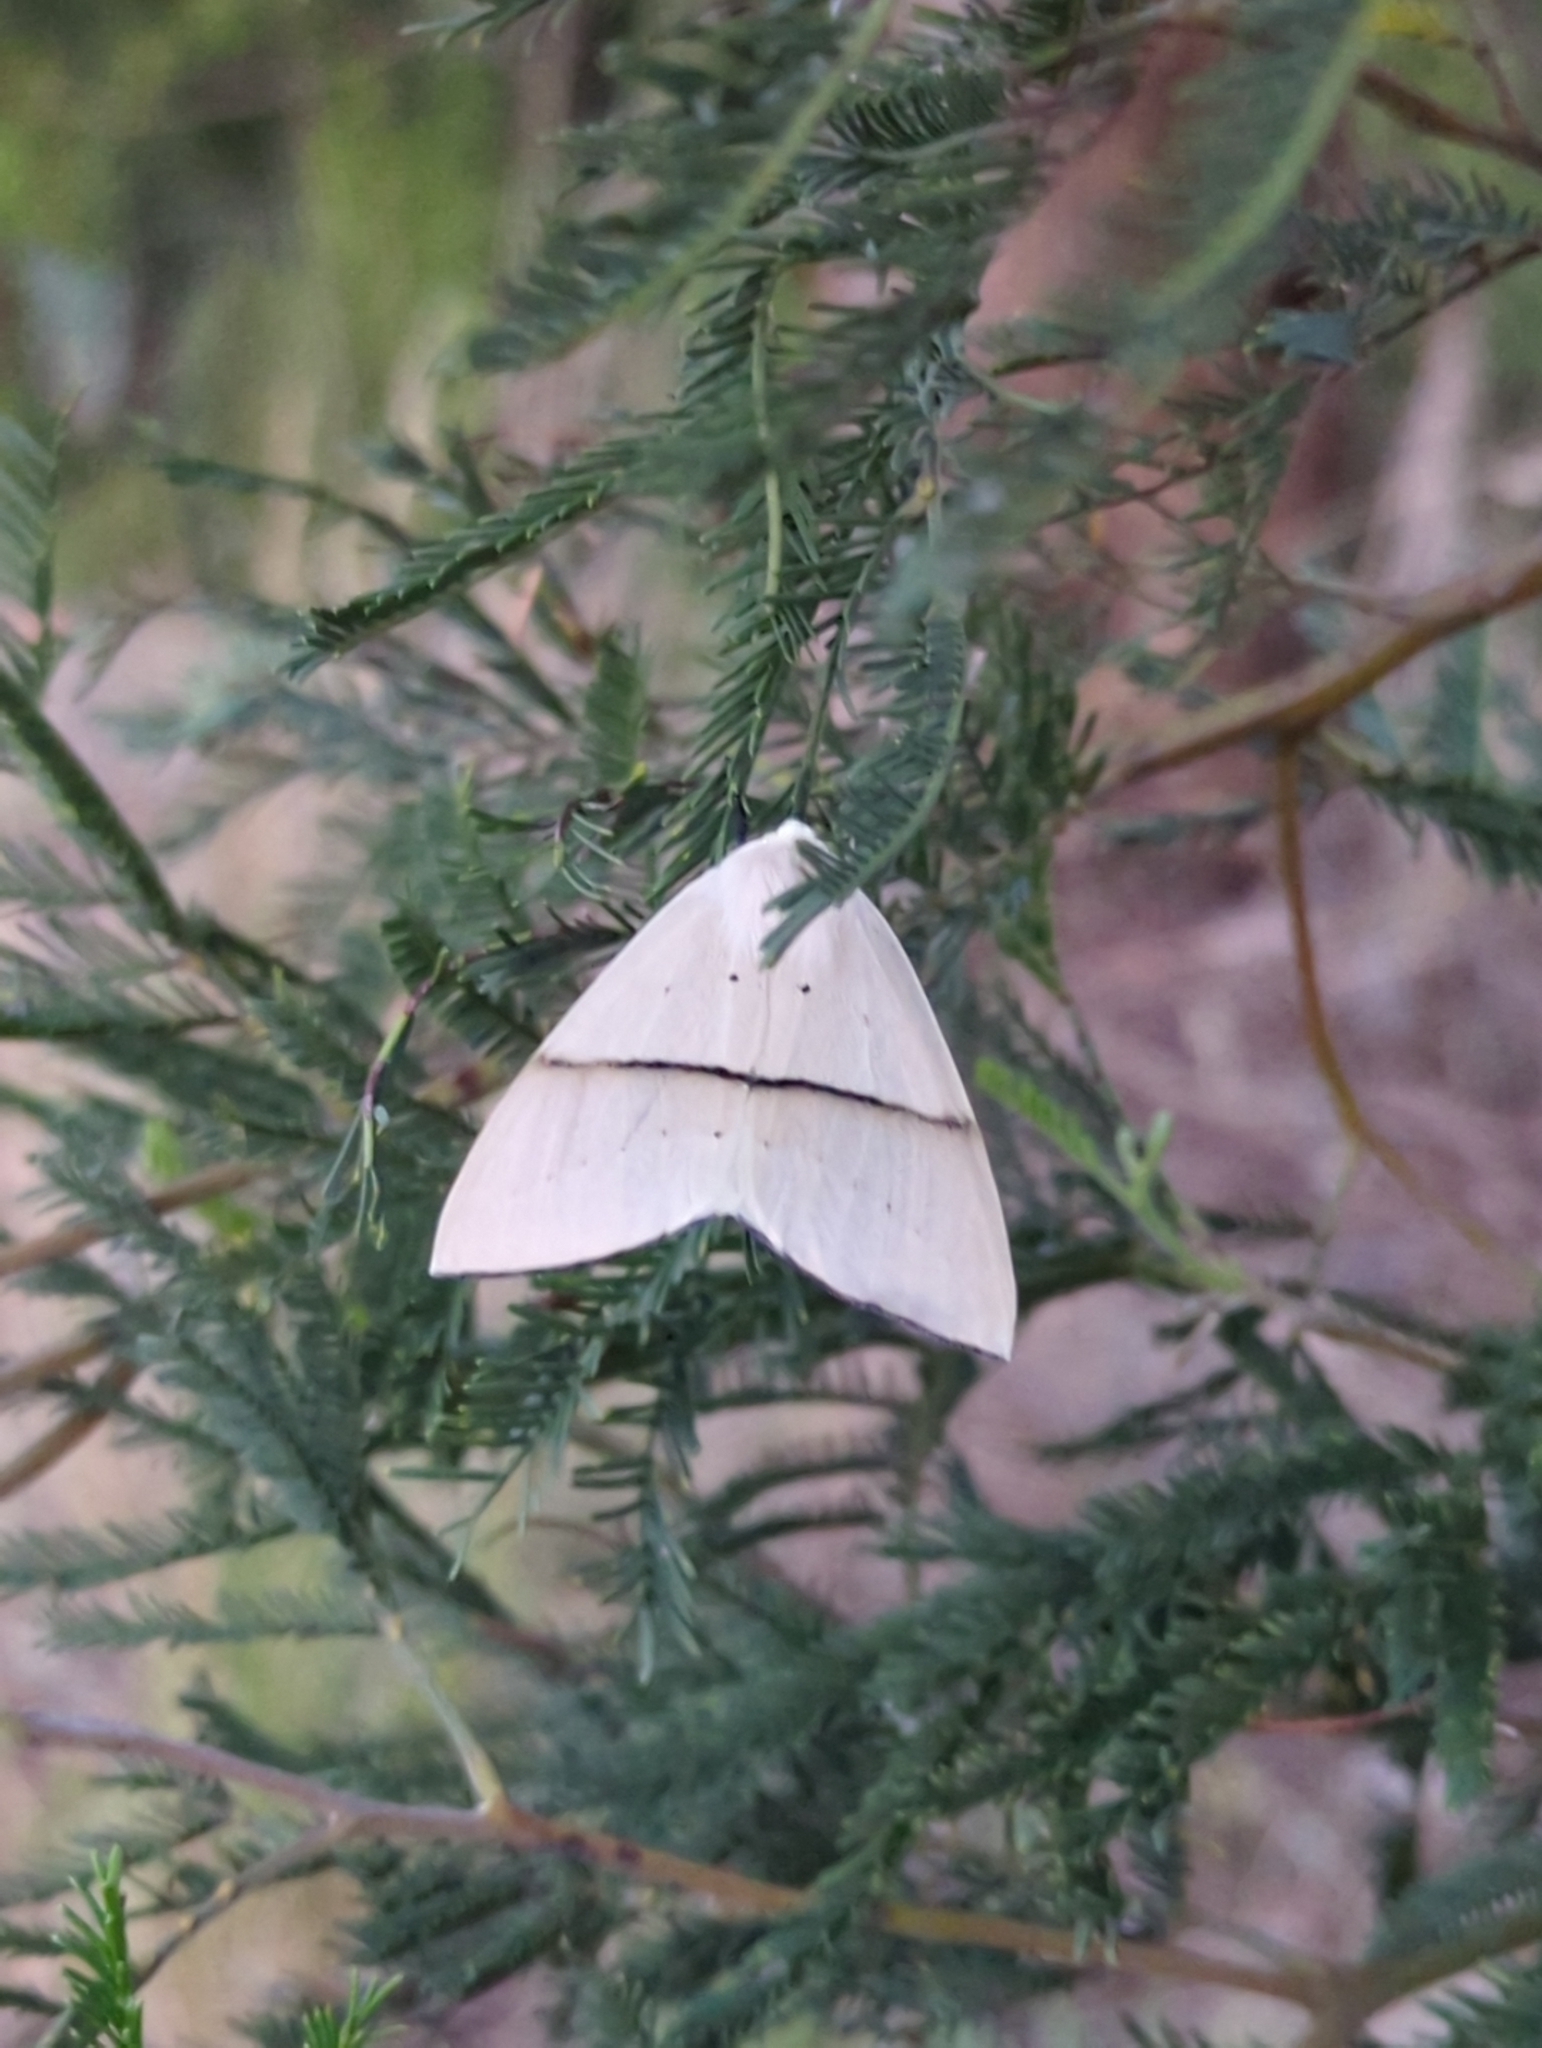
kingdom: Animalia
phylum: Arthropoda
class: Insecta
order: Lepidoptera
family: Geometridae
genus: Gastrophora
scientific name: Gastrophora henricaria
